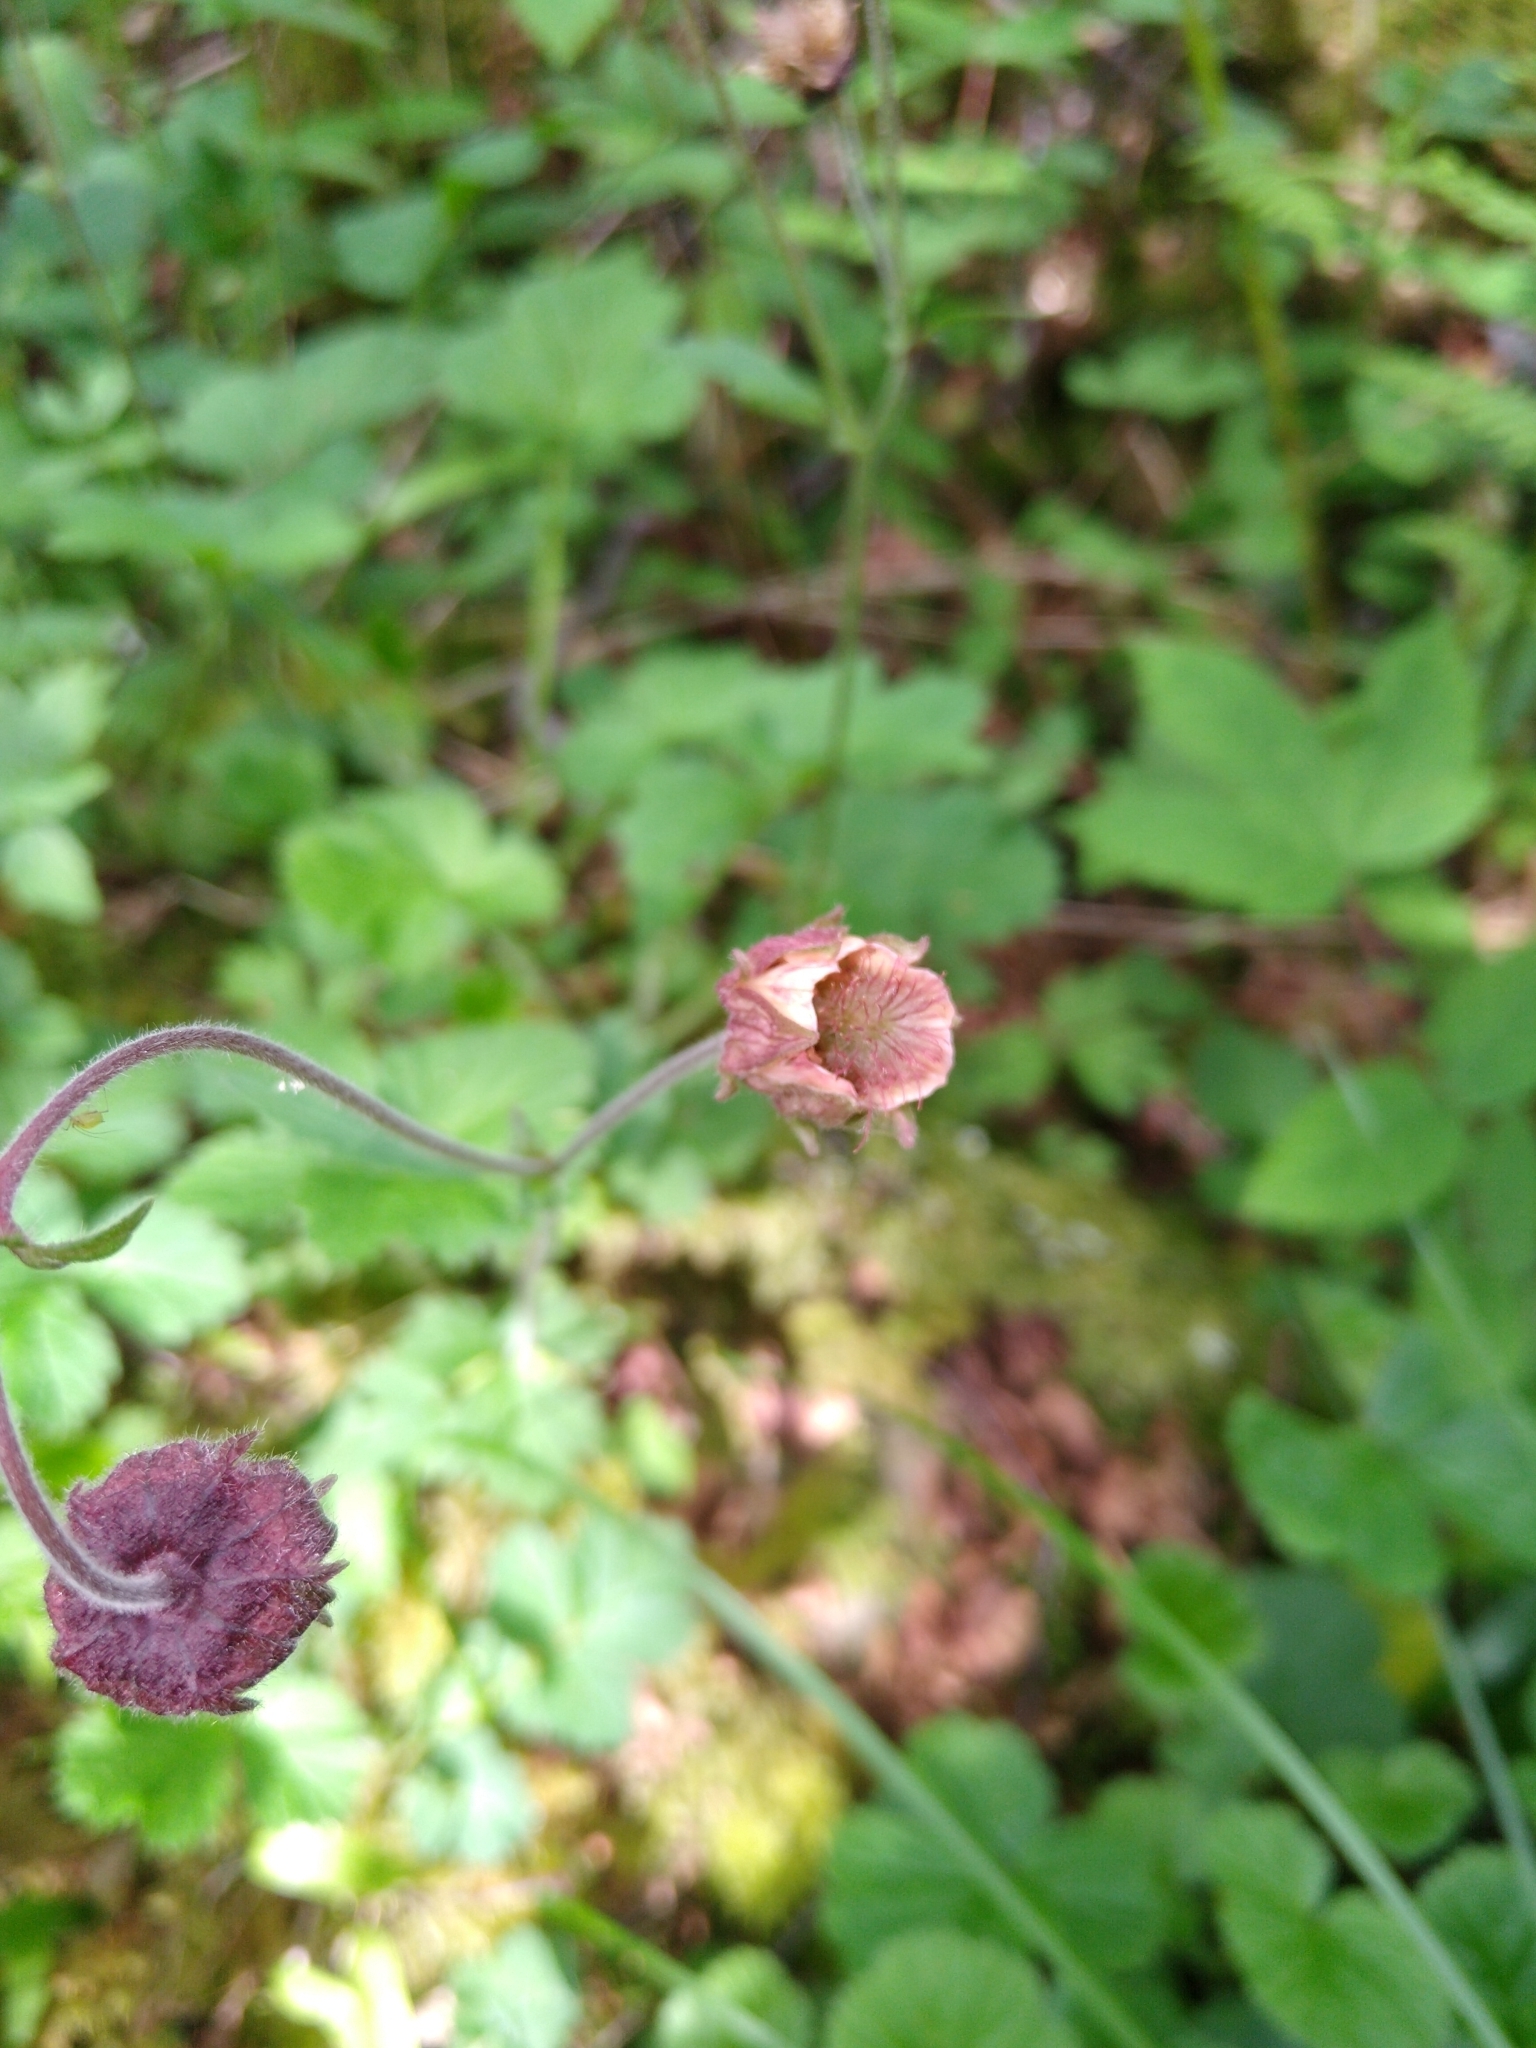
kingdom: Plantae
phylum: Tracheophyta
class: Magnoliopsida
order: Rosales
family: Rosaceae
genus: Geum
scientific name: Geum rivale
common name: Water avens
